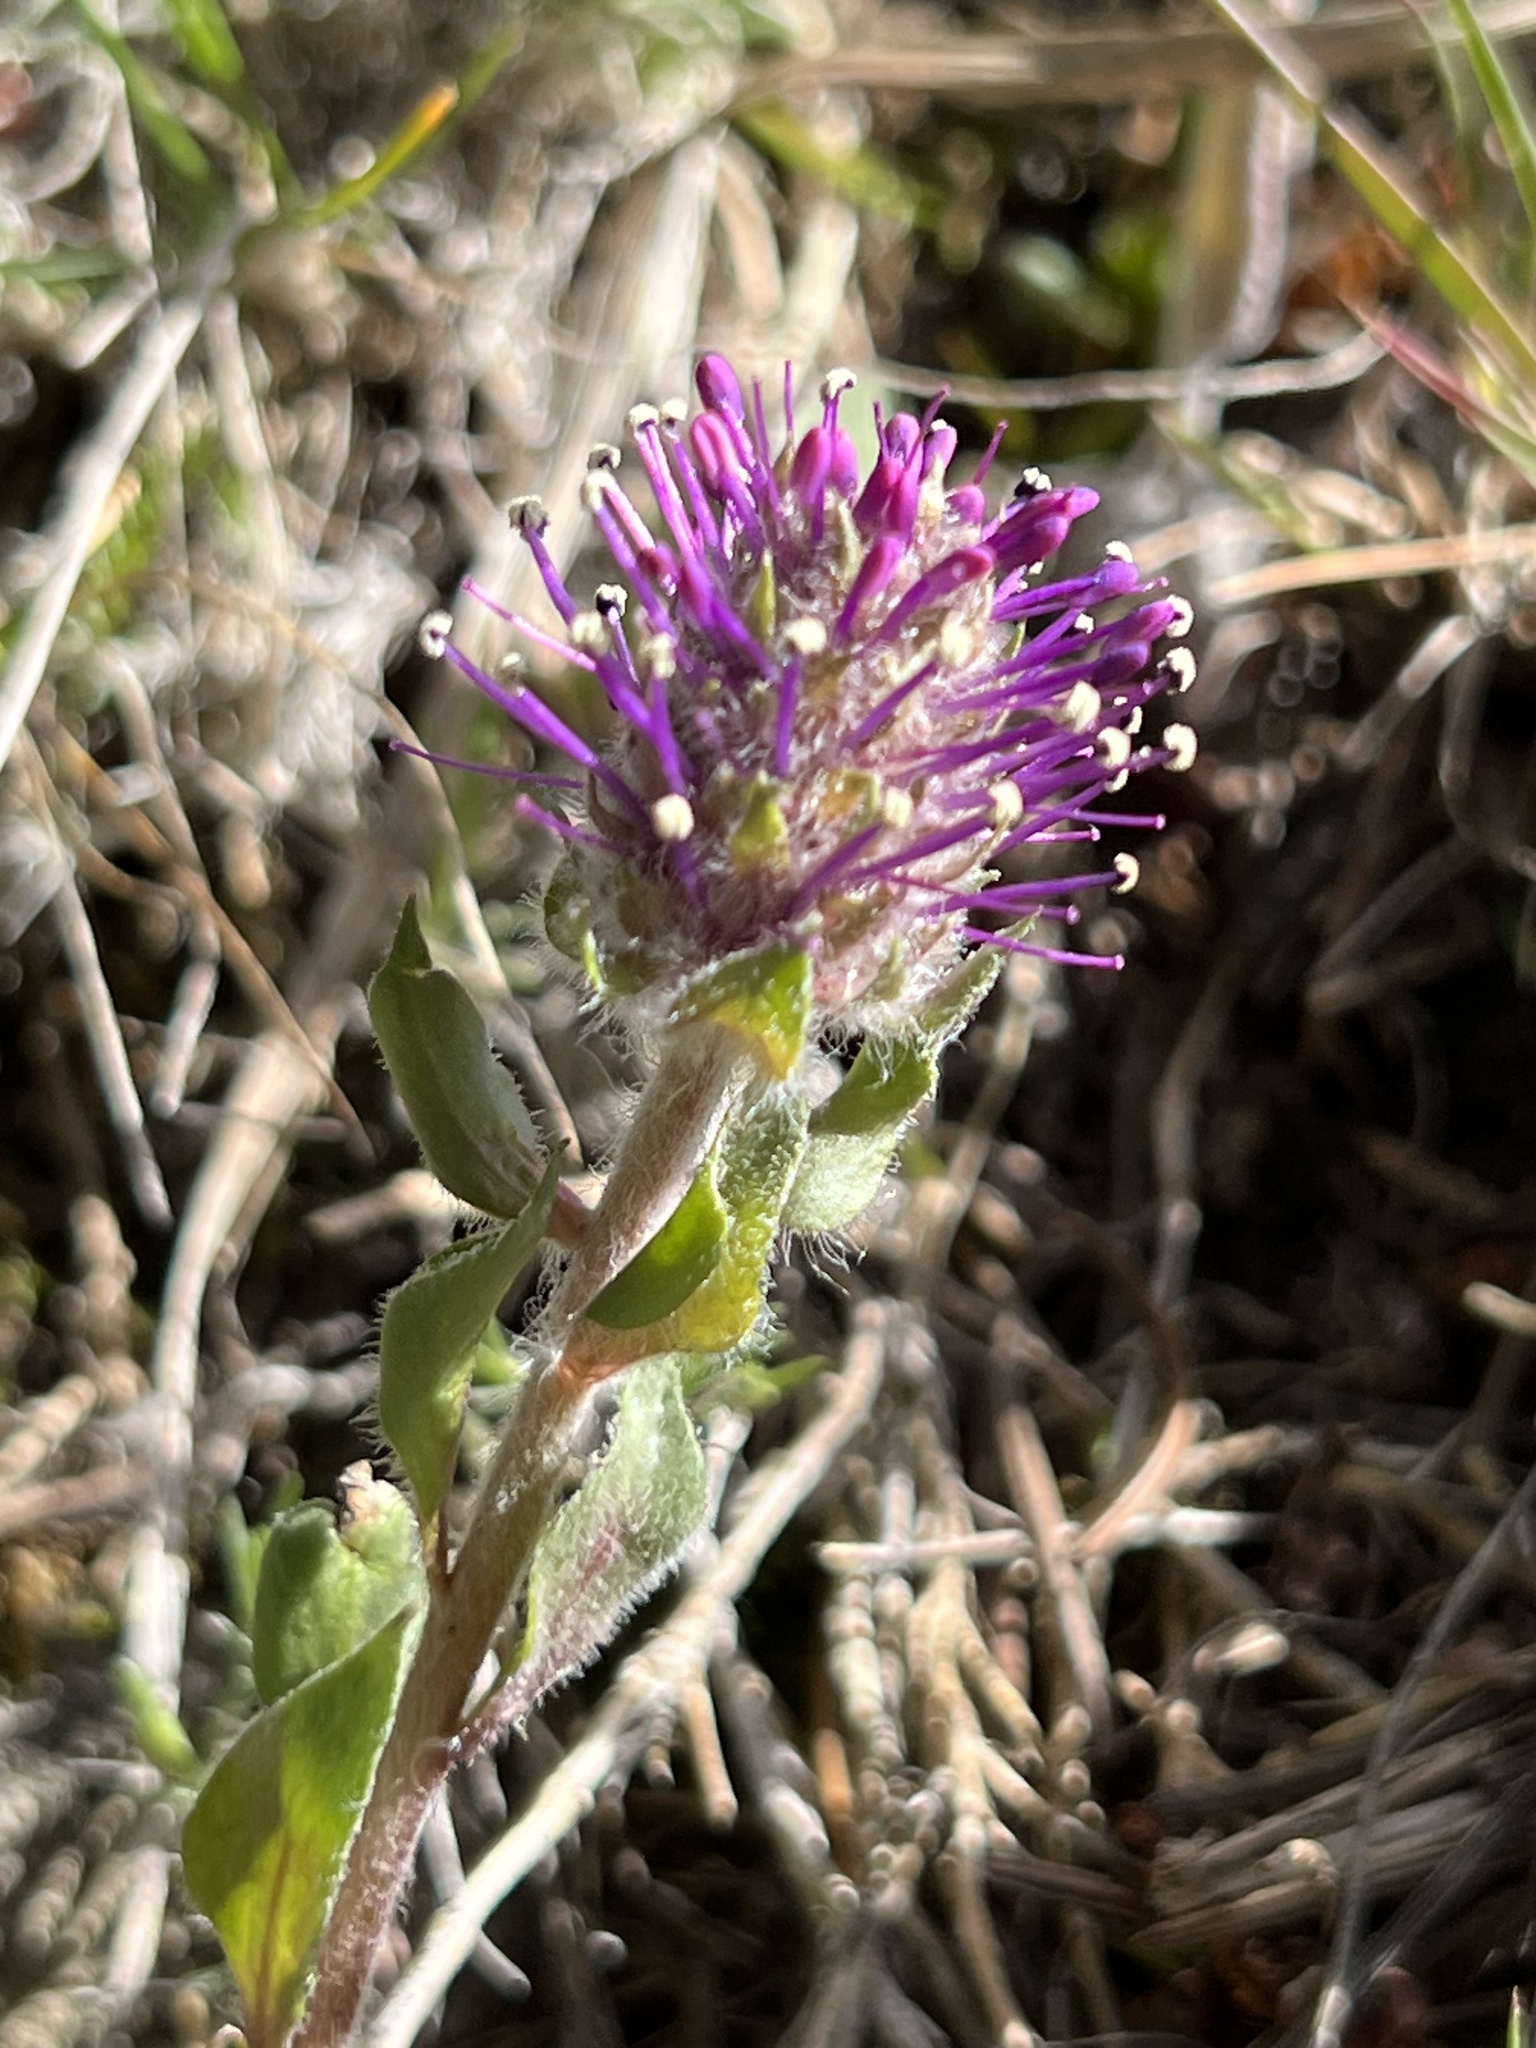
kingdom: Plantae
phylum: Tracheophyta
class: Magnoliopsida
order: Lamiales
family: Plantaginaceae
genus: Synthyris
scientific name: Synthyris wyomingensis
